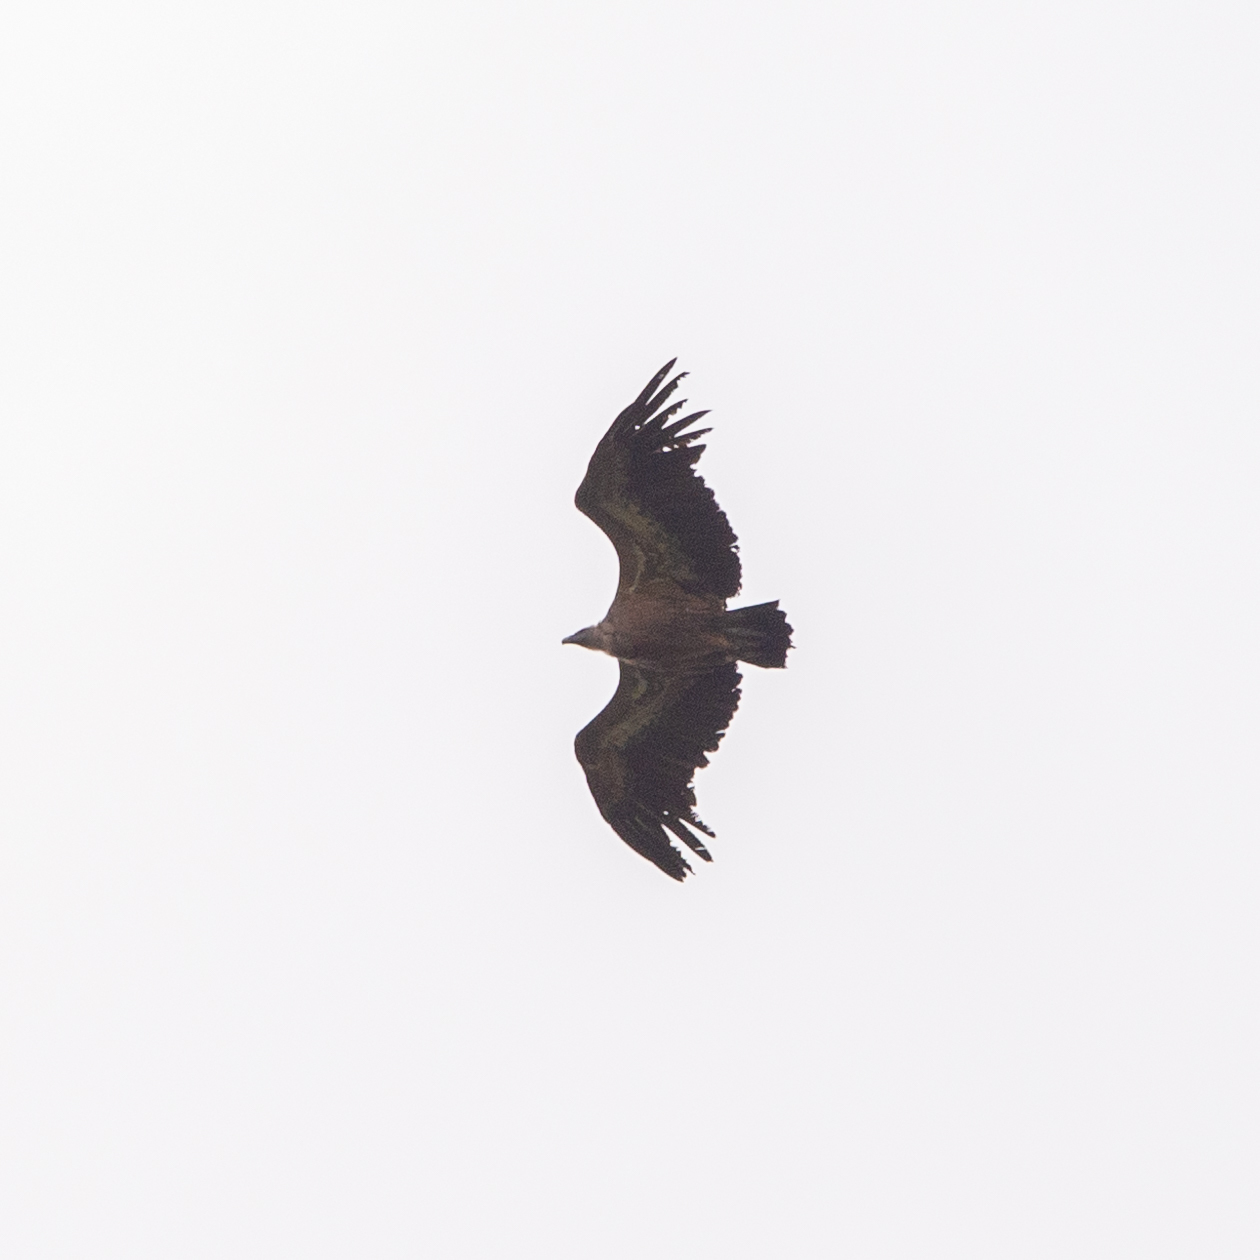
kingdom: Animalia
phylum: Chordata
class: Aves
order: Accipitriformes
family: Accipitridae
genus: Gyps
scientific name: Gyps fulvus
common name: Griffon vulture
